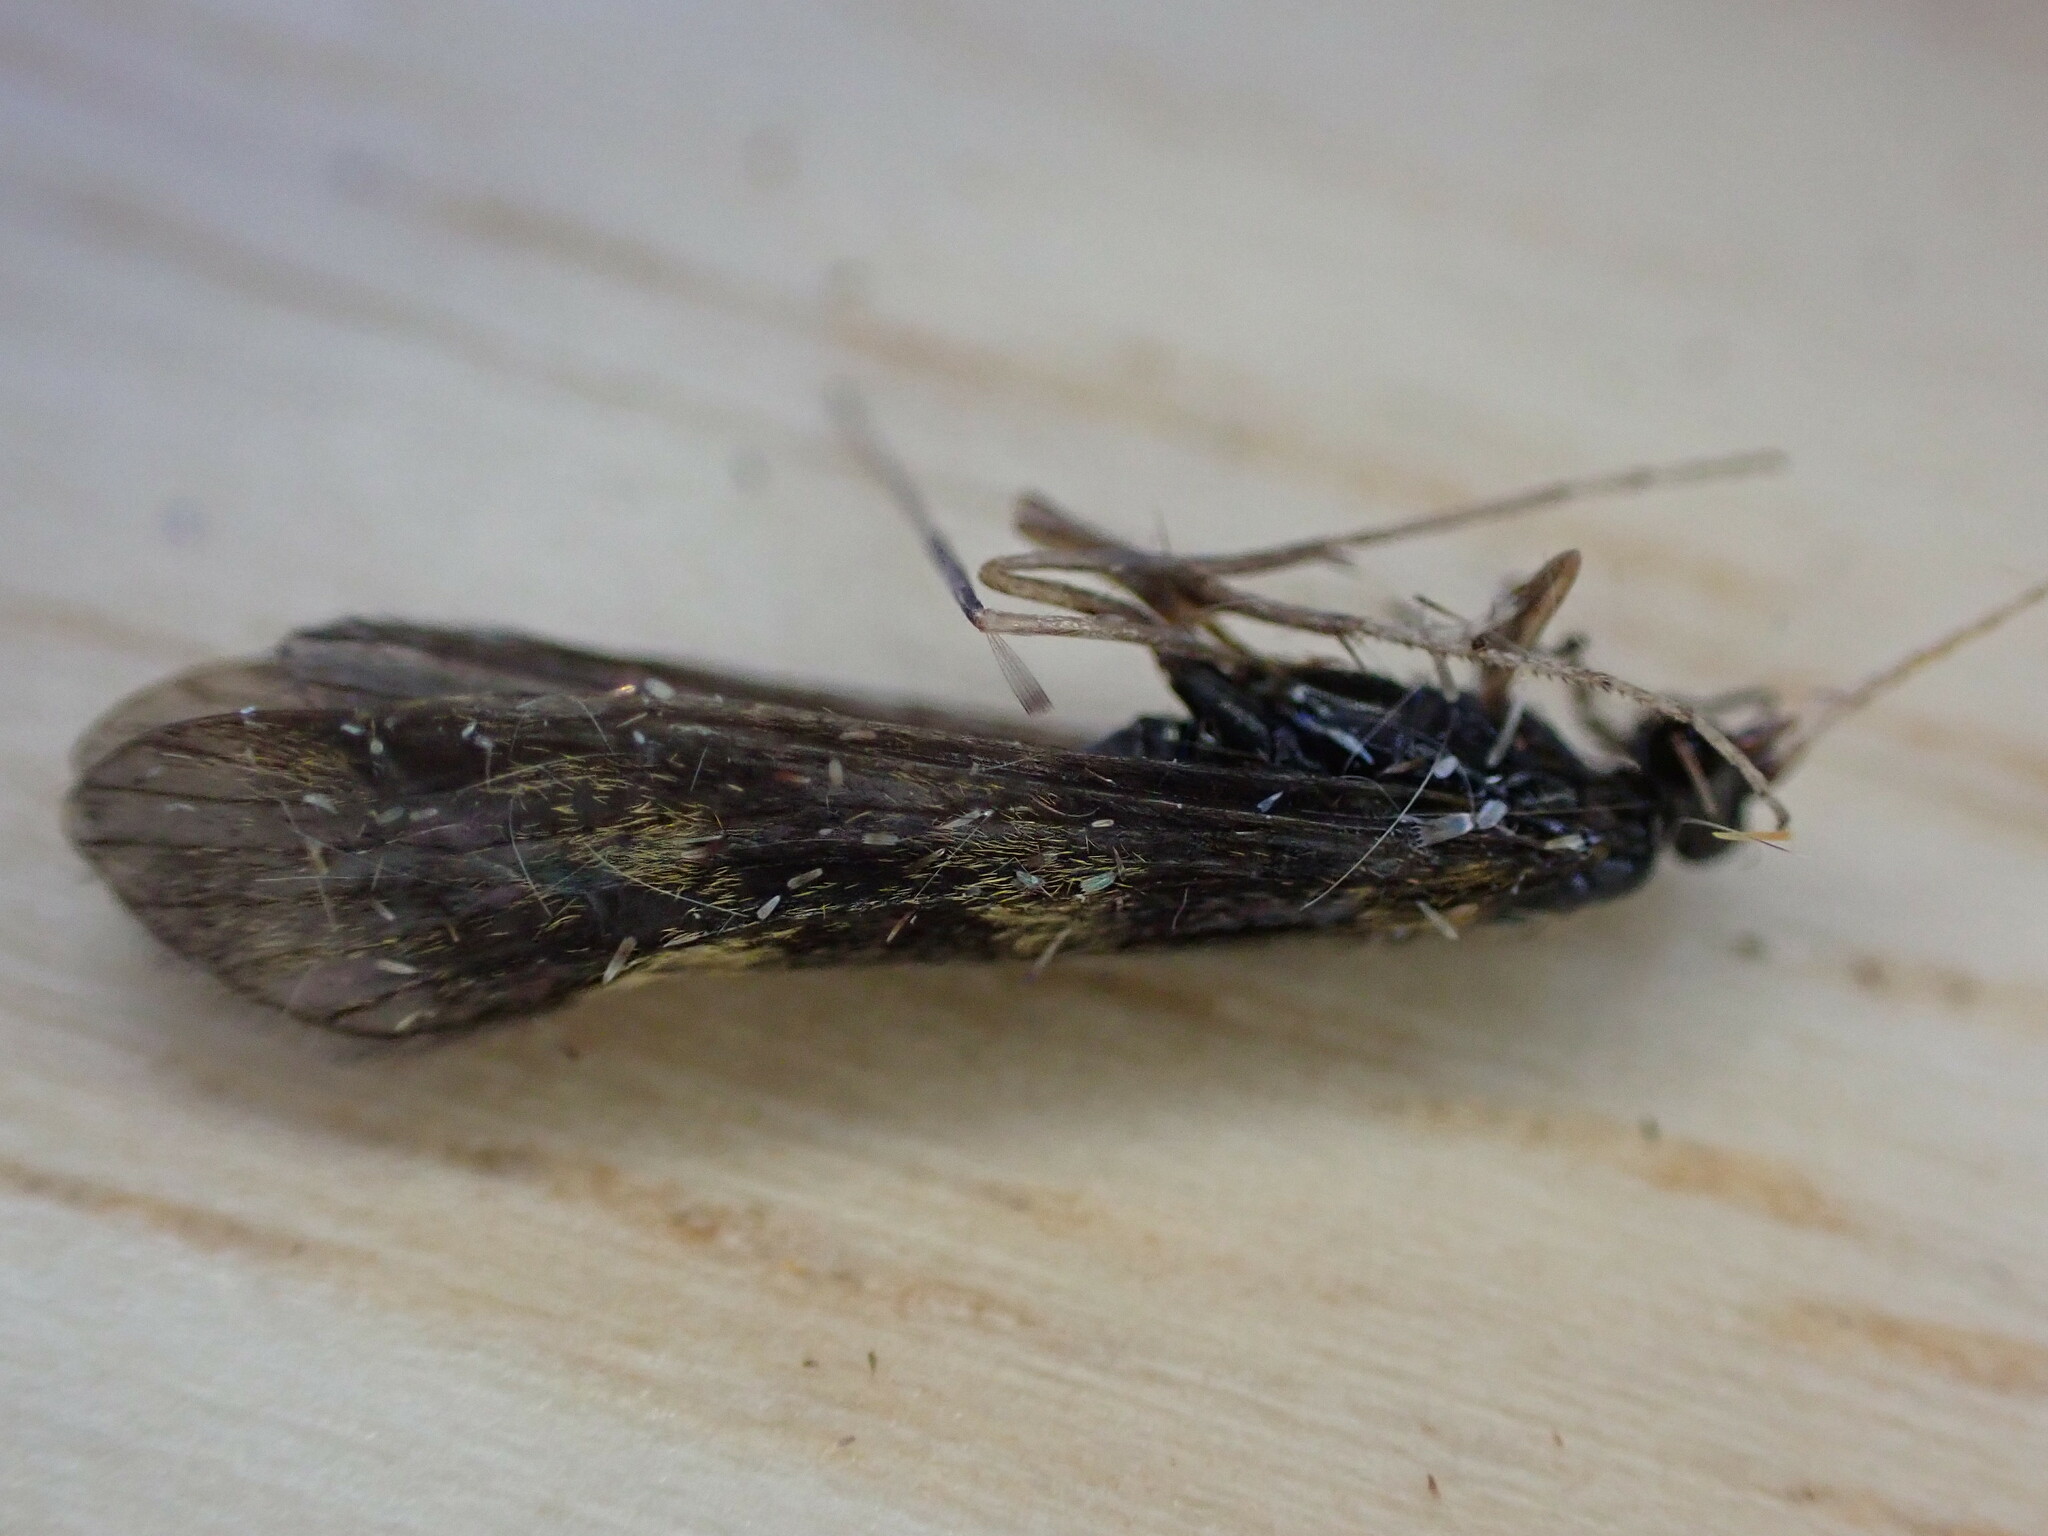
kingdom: Animalia
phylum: Arthropoda
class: Insecta
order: Trichoptera
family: Leptoceridae
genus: Mystacides
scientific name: Mystacides longicornis
